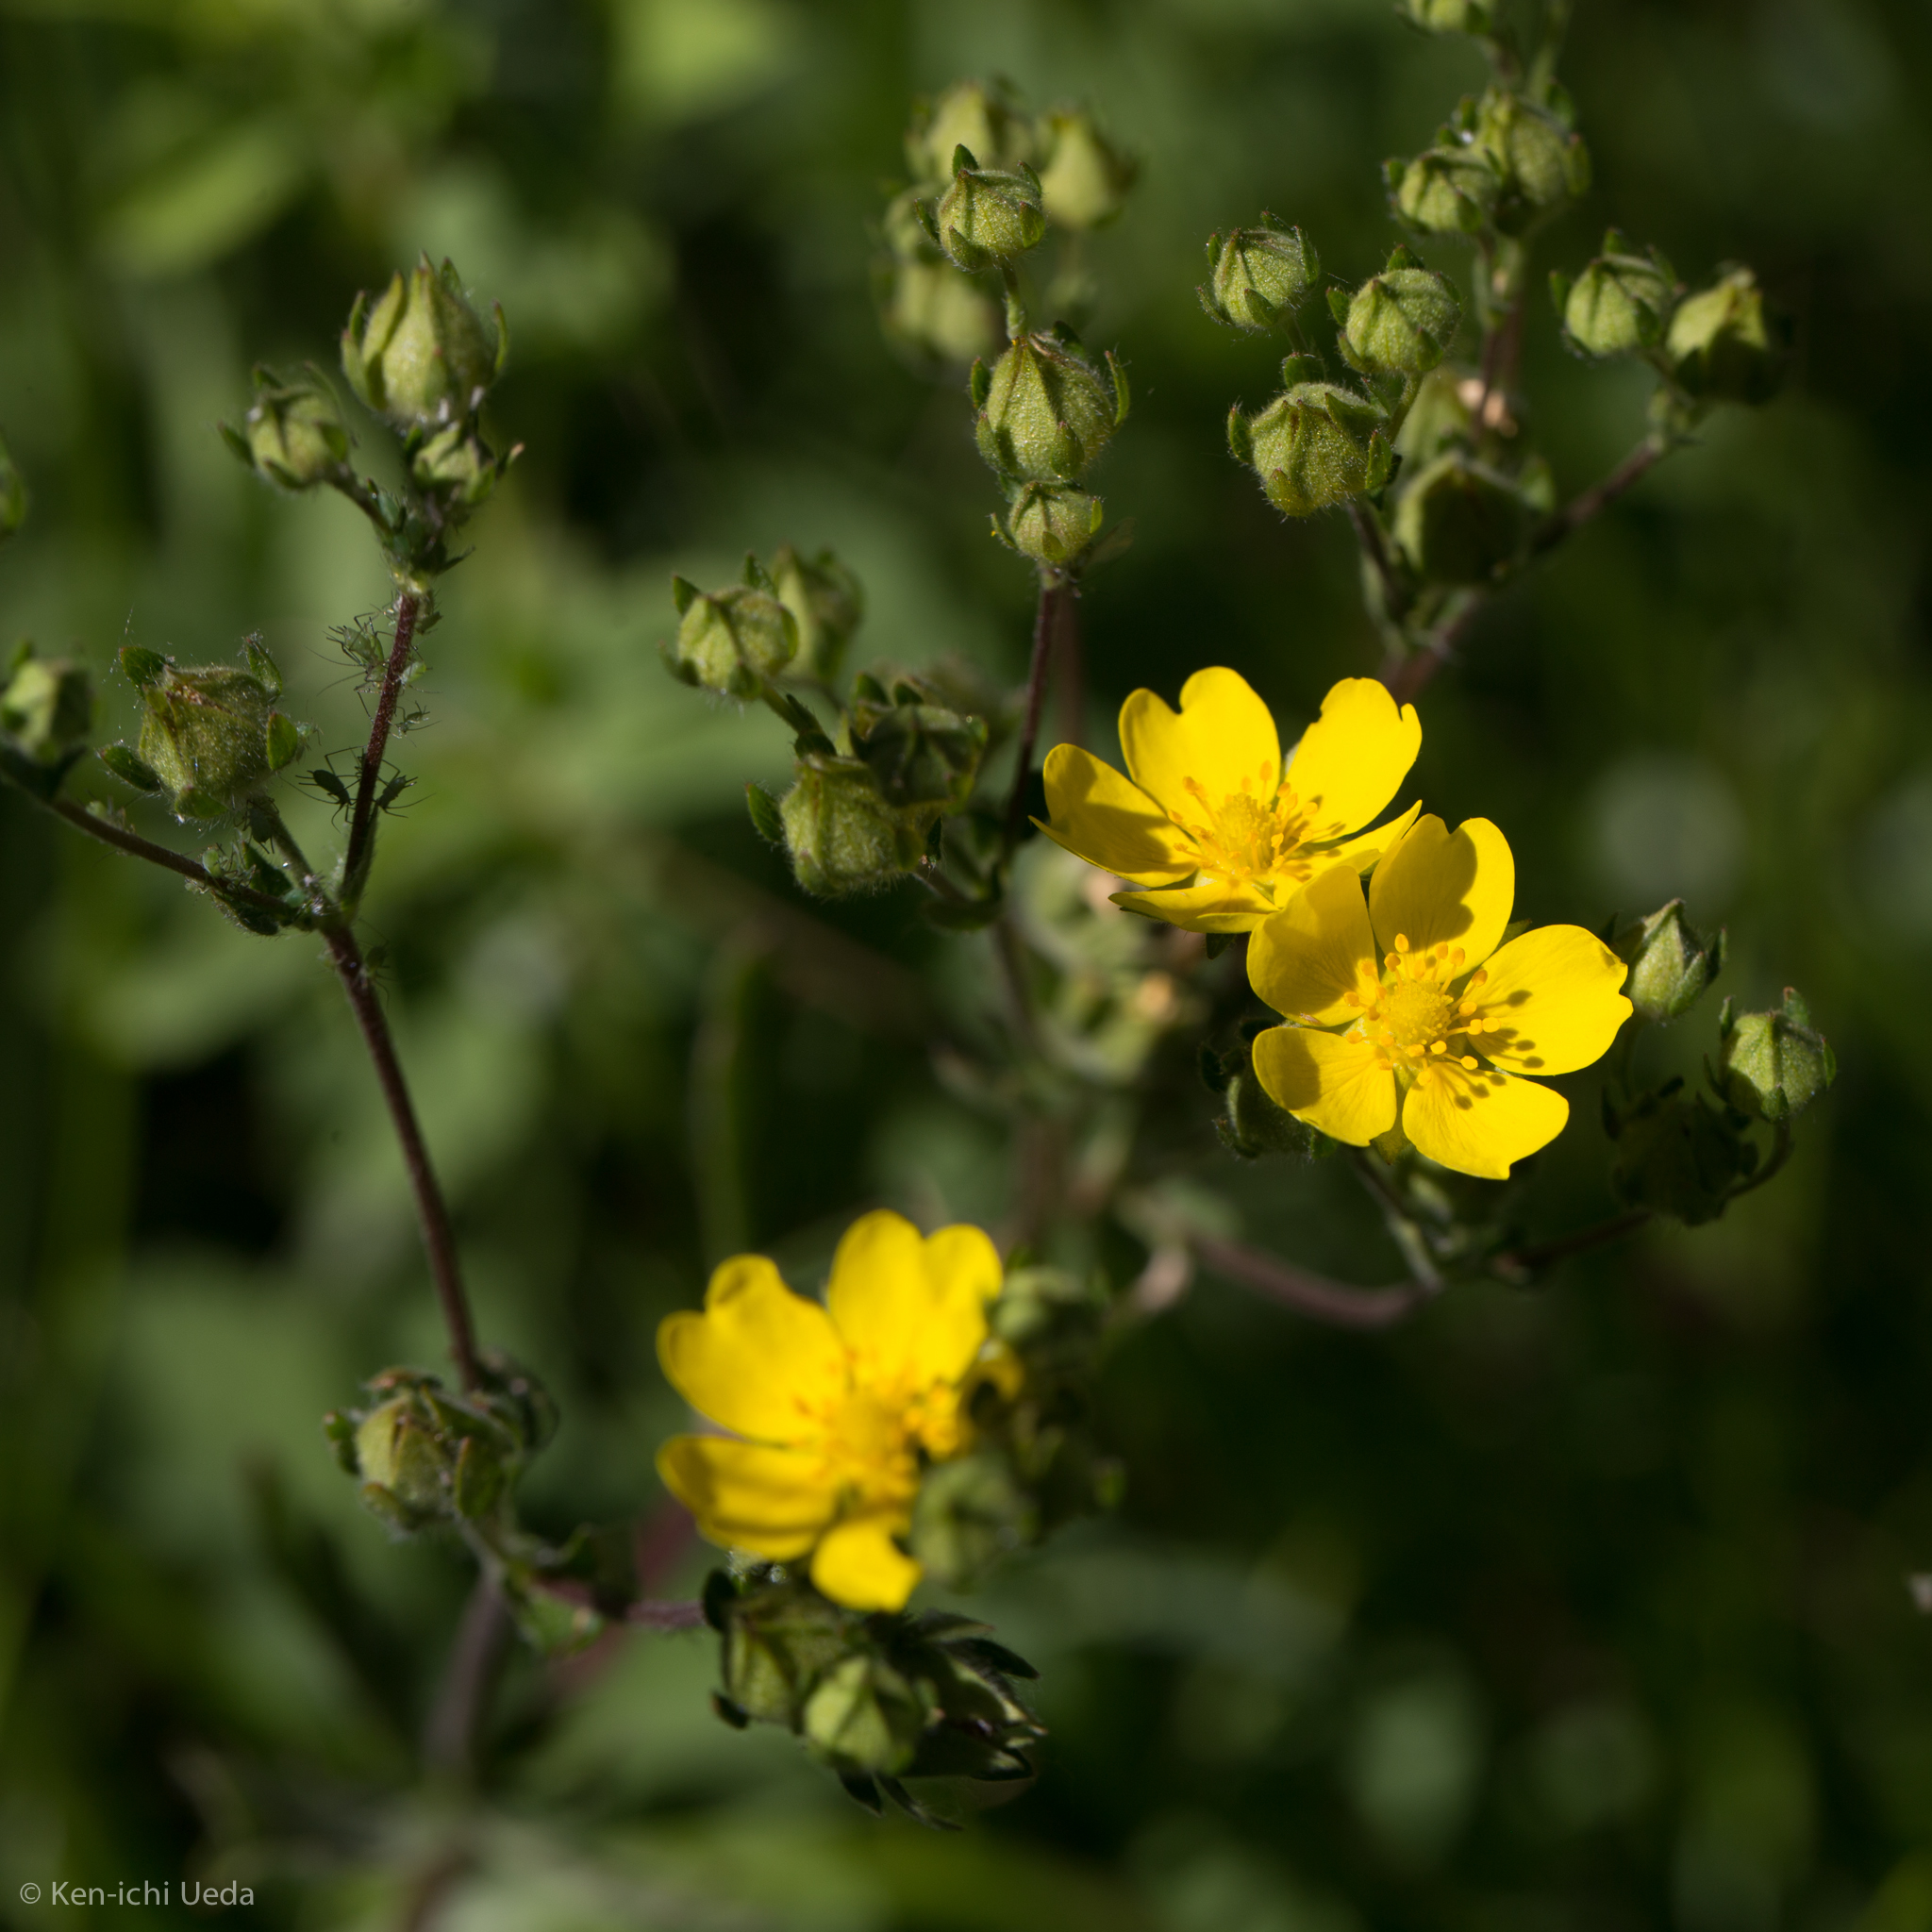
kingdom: Plantae
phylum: Tracheophyta
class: Magnoliopsida
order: Rosales
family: Rosaceae
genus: Potentilla
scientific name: Potentilla gracilis
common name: Graceful cinquefoil
